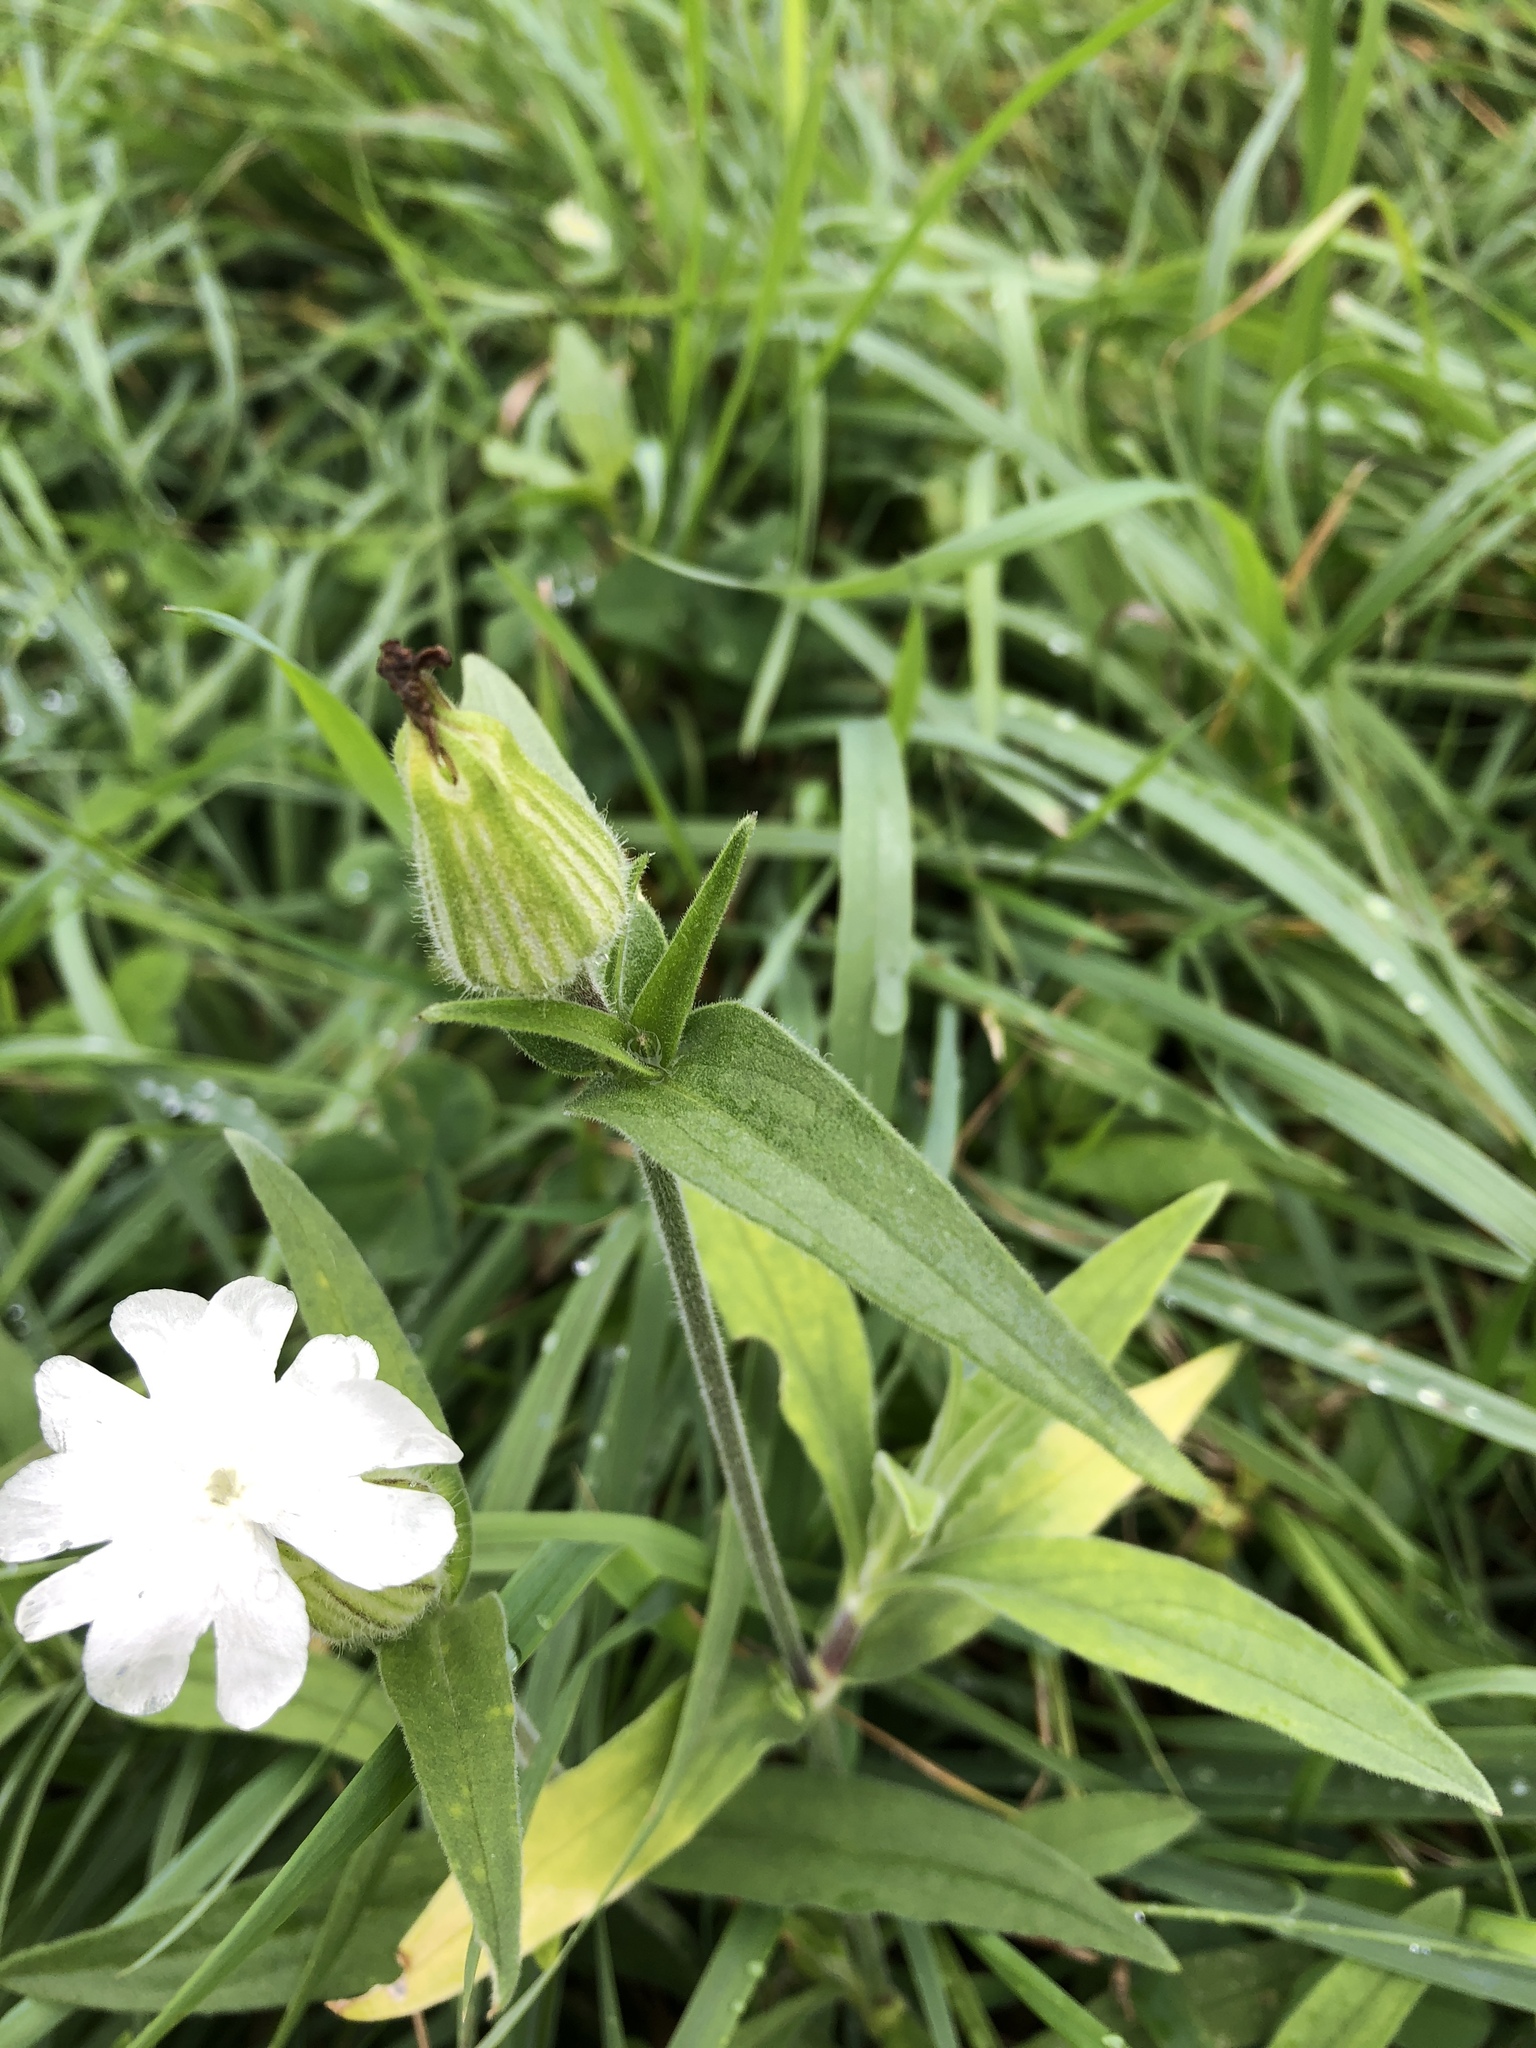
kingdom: Plantae
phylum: Tracheophyta
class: Magnoliopsida
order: Caryophyllales
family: Caryophyllaceae
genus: Silene
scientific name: Silene latifolia
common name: White campion
